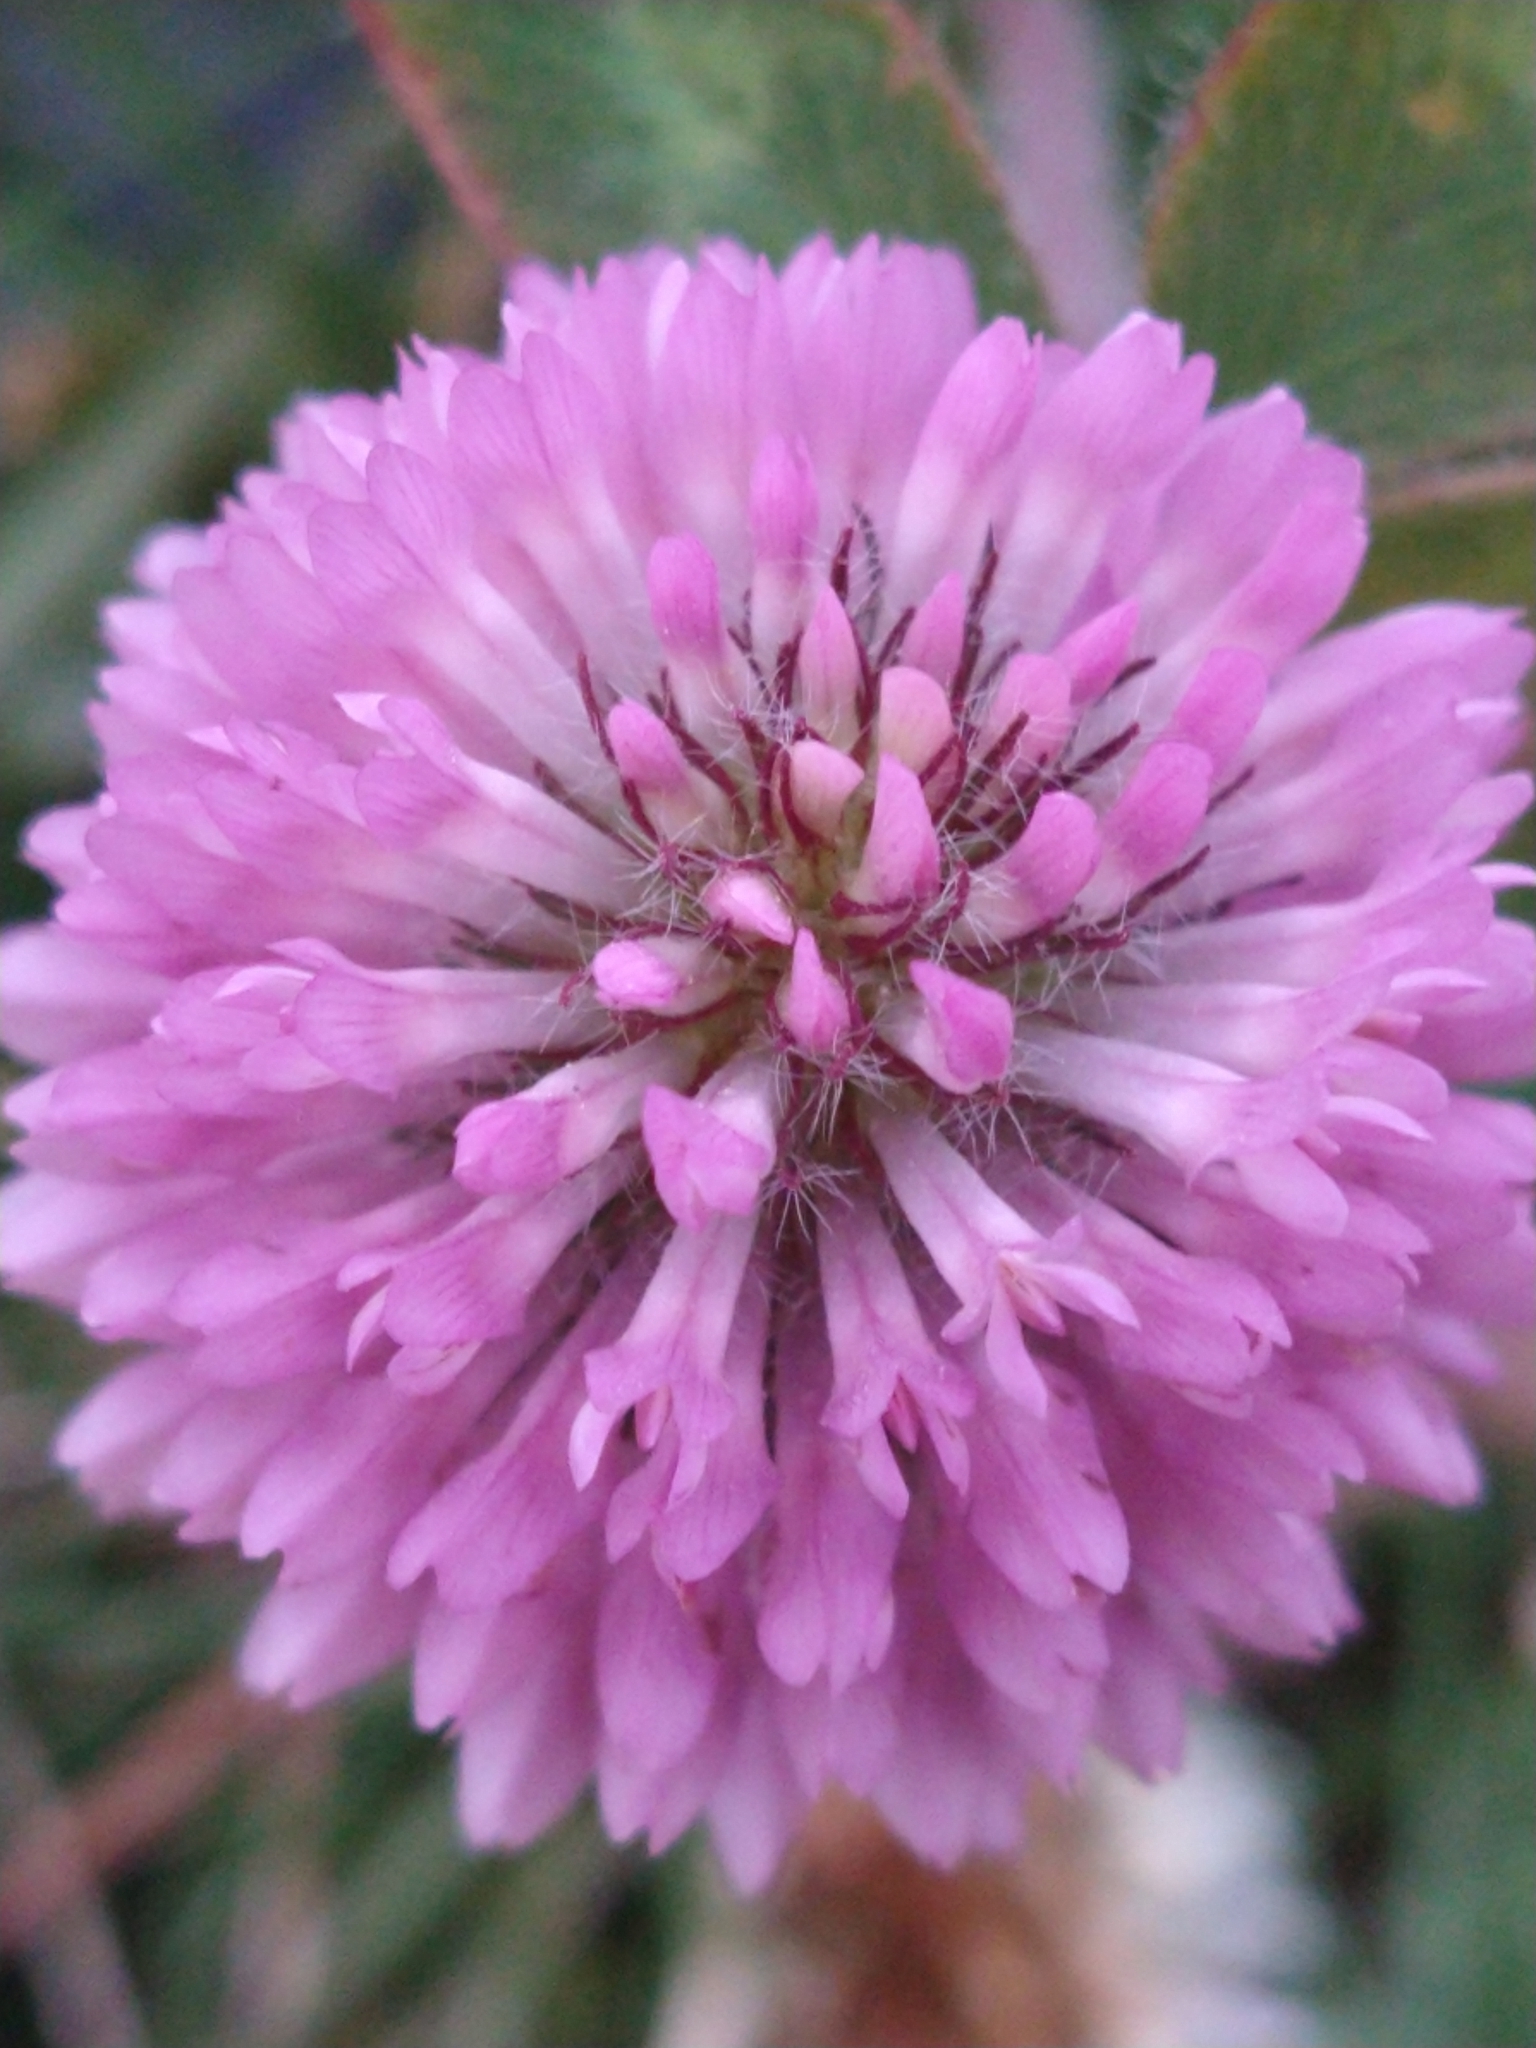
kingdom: Plantae
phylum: Tracheophyta
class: Magnoliopsida
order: Fabales
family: Fabaceae
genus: Trifolium
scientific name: Trifolium pratense
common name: Red clover
